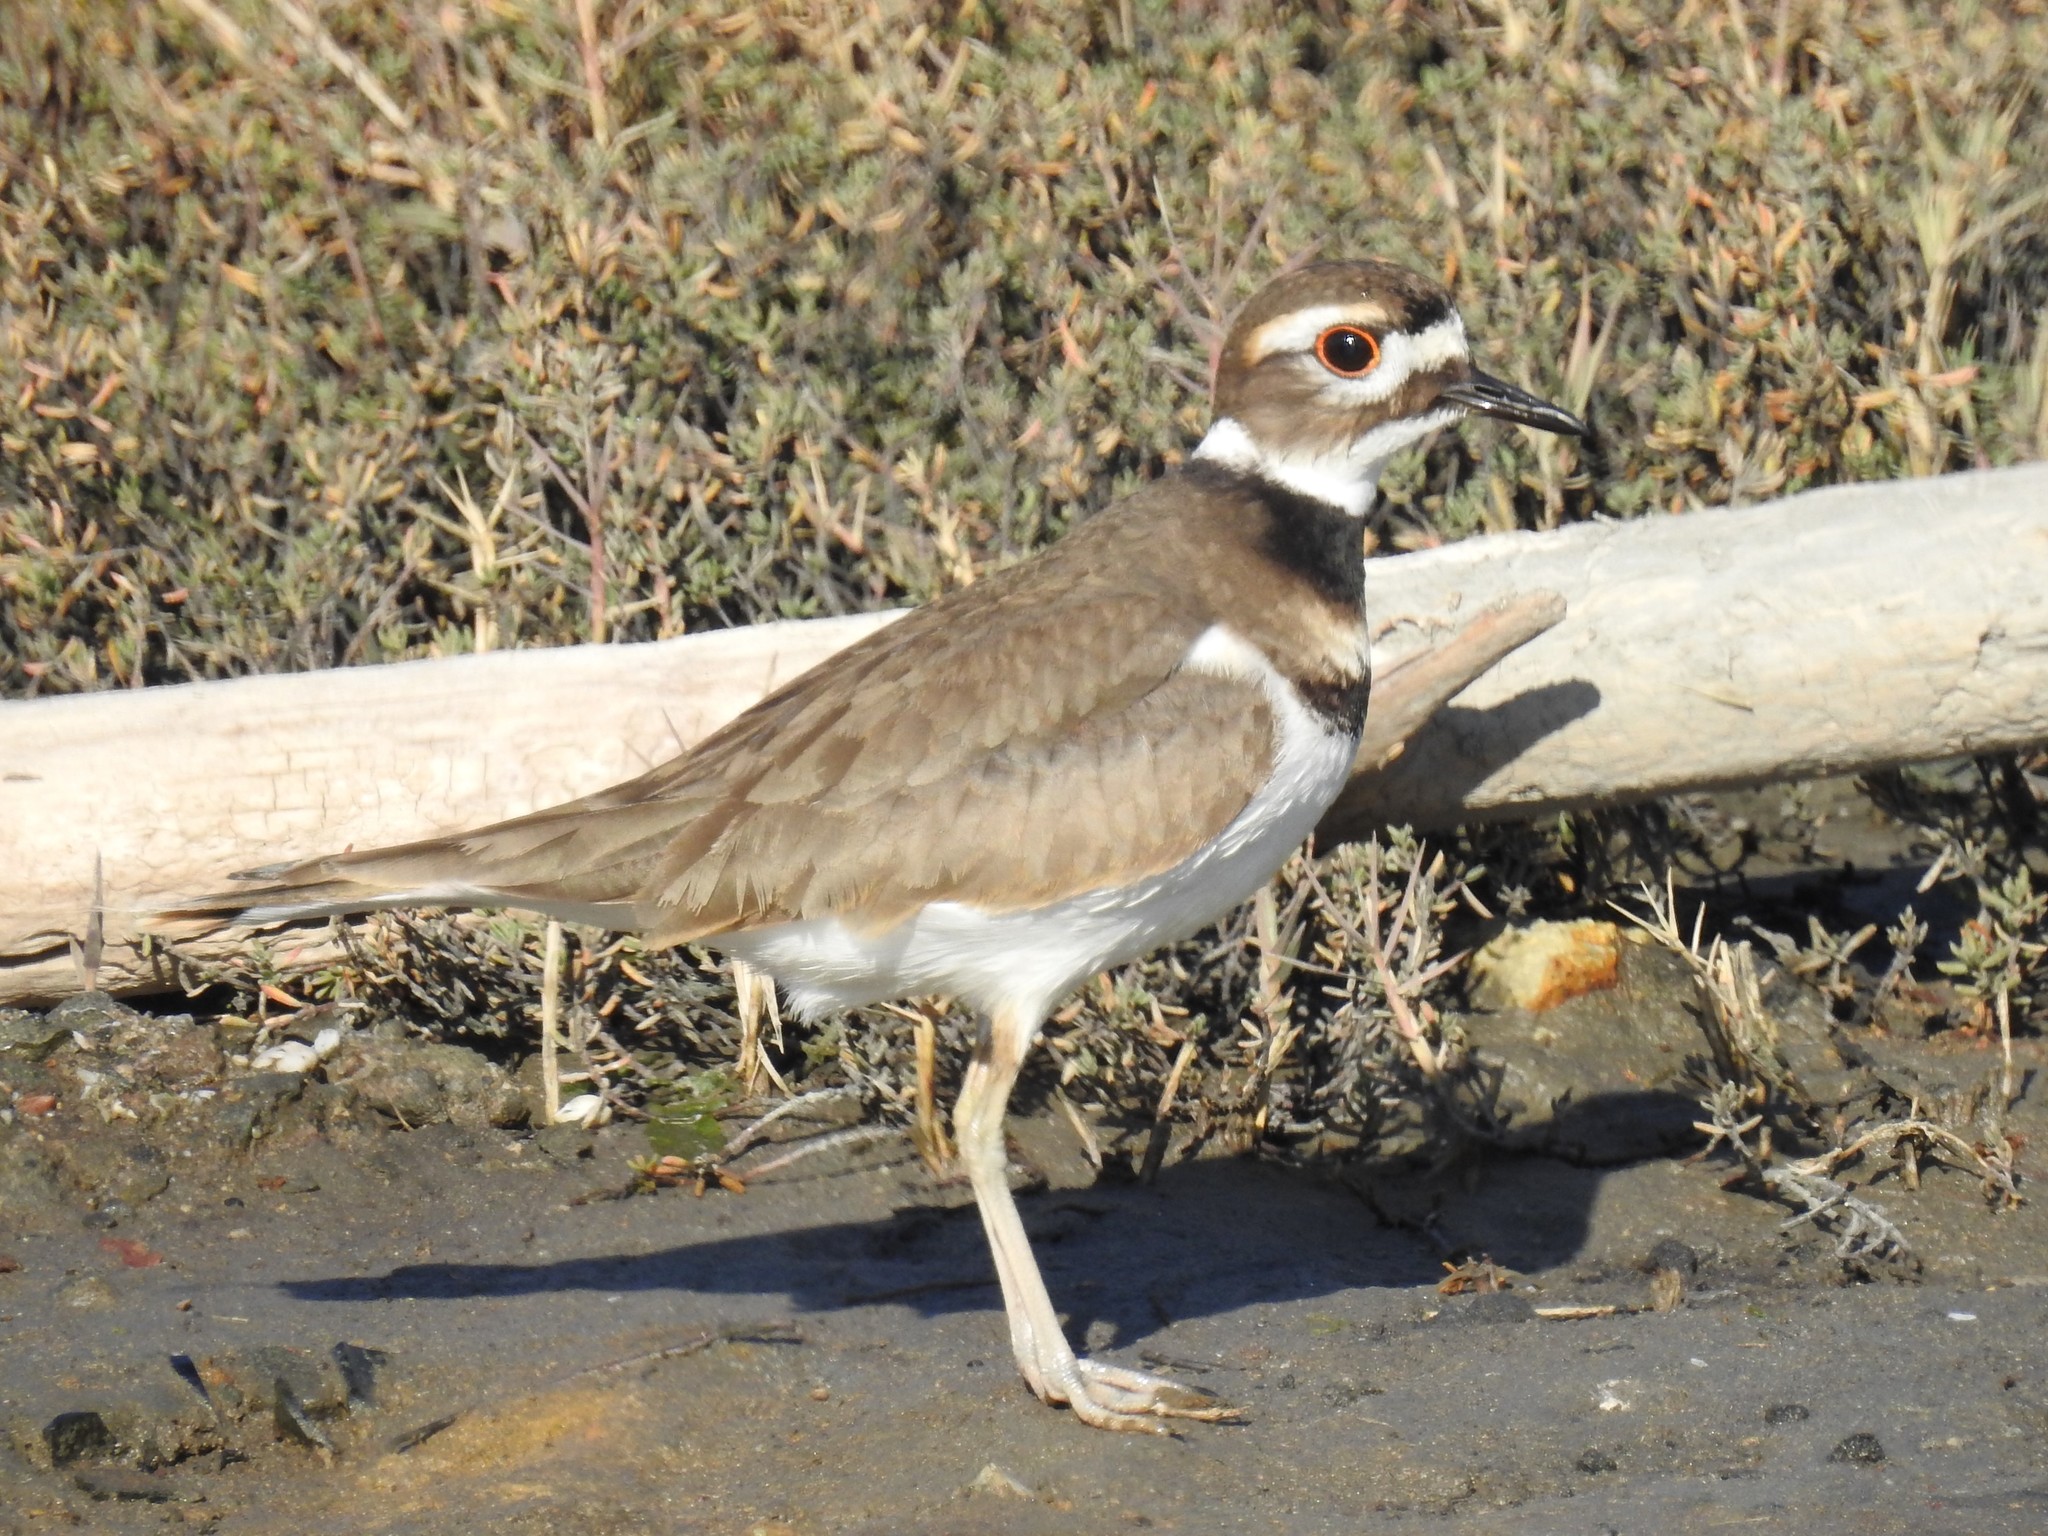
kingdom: Animalia
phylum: Chordata
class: Aves
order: Charadriiformes
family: Charadriidae
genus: Charadrius
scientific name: Charadrius vociferus
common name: Killdeer
